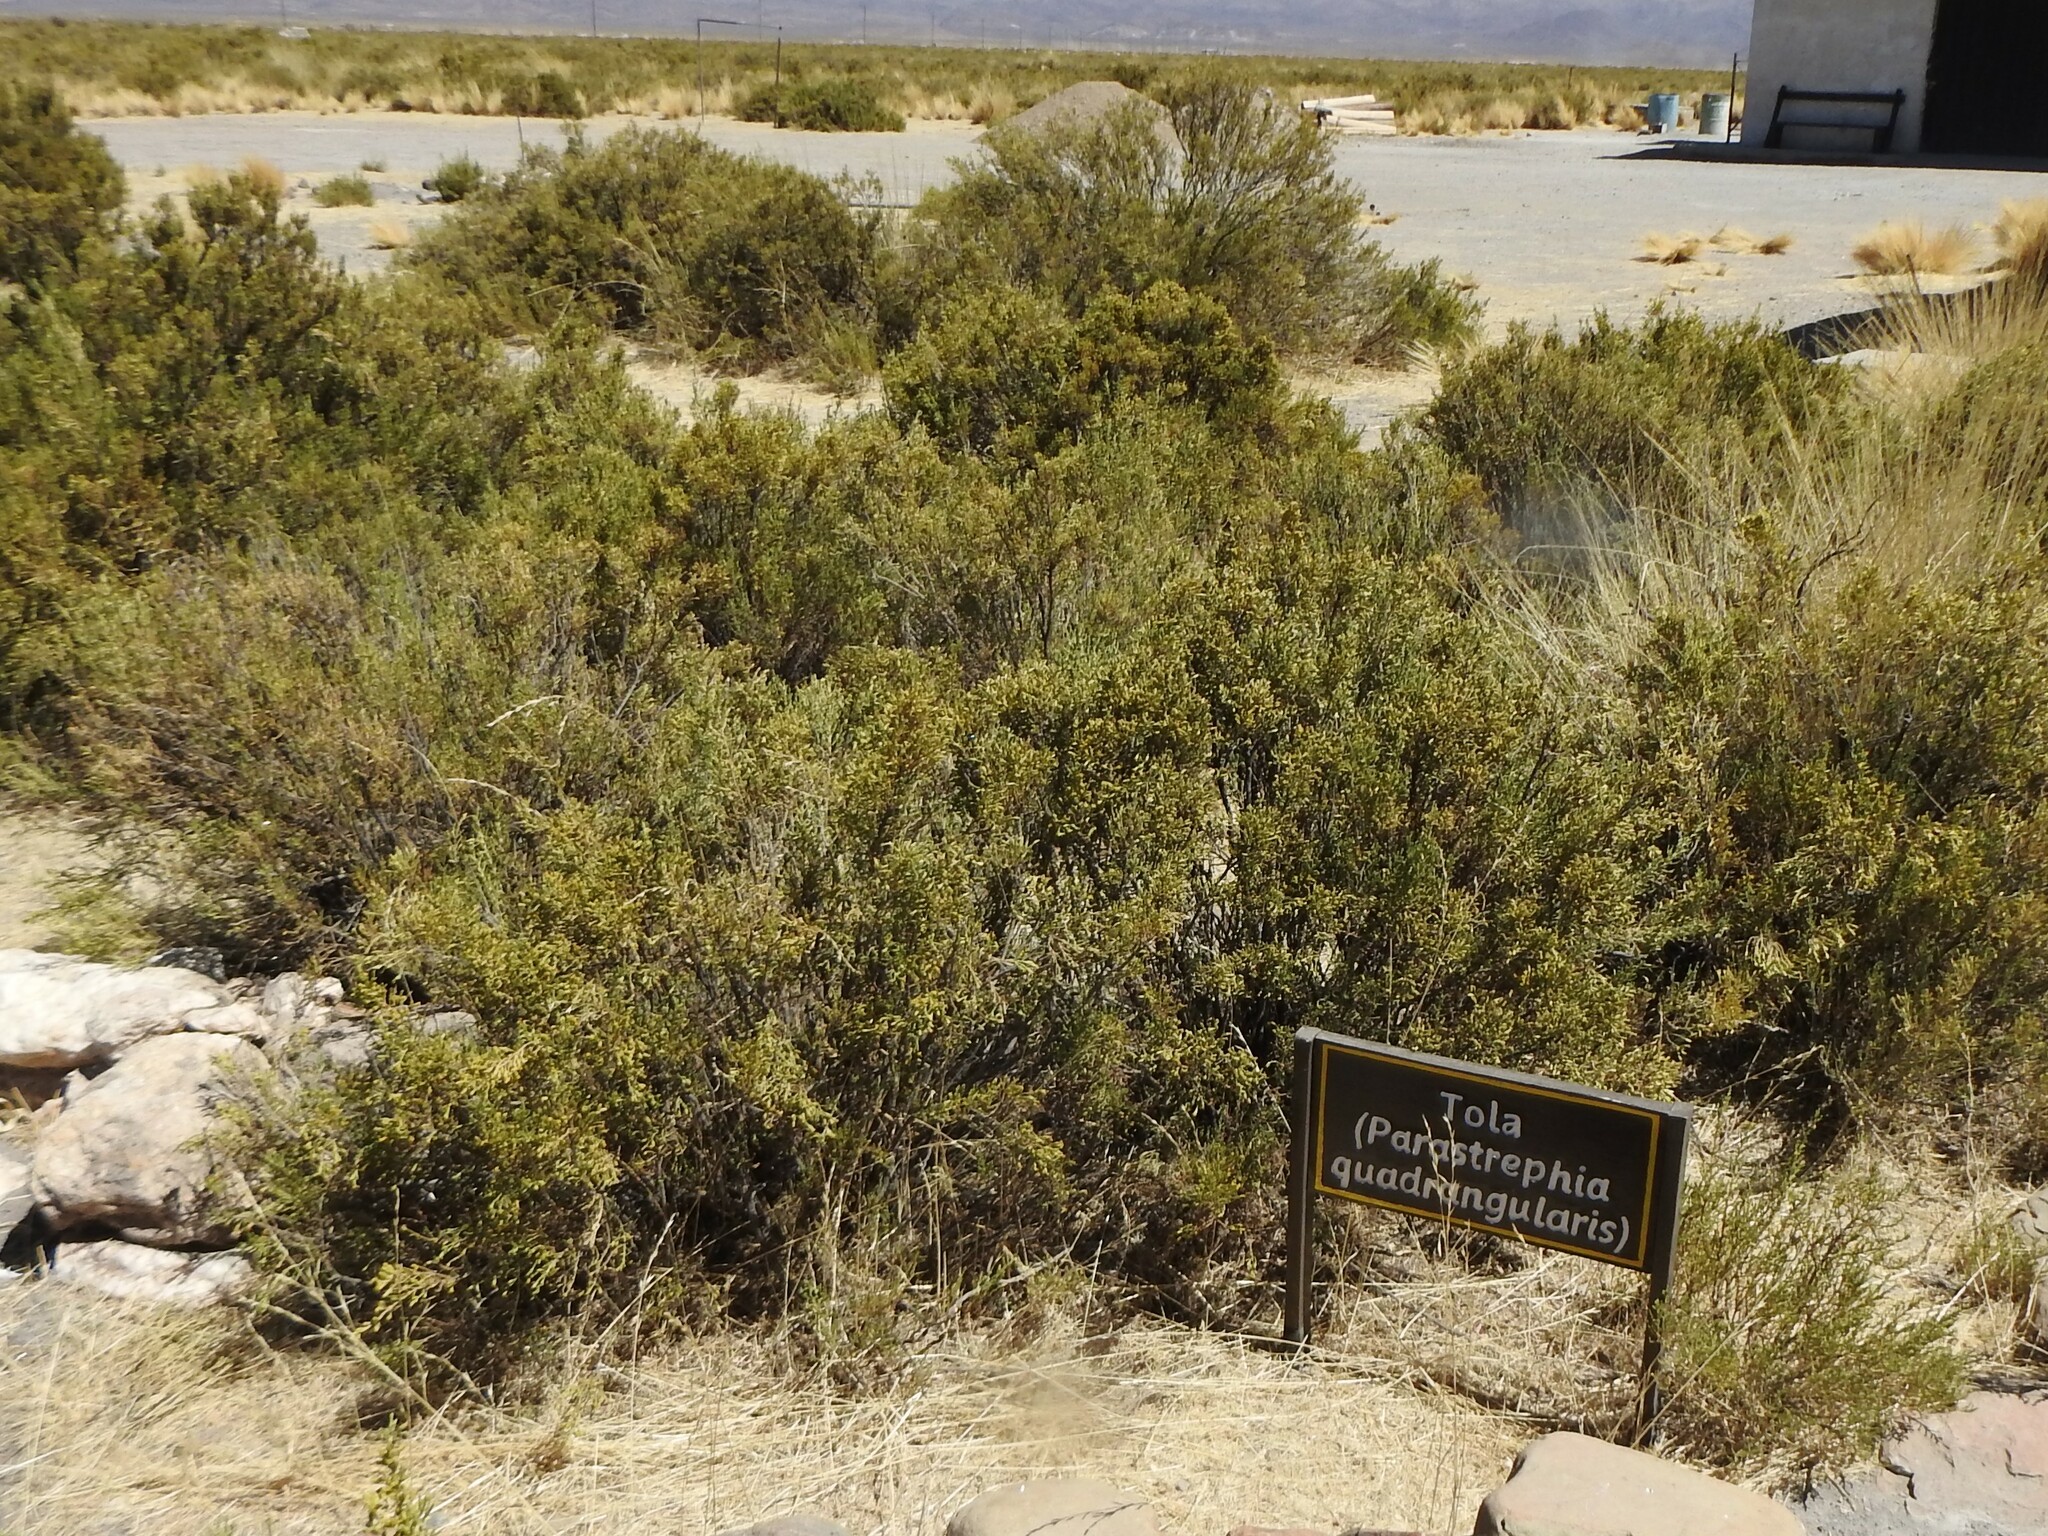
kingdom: Plantae
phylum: Tracheophyta
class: Magnoliopsida
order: Asterales
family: Asteraceae
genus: Parastrephia
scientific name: Parastrephia quadrangularis
